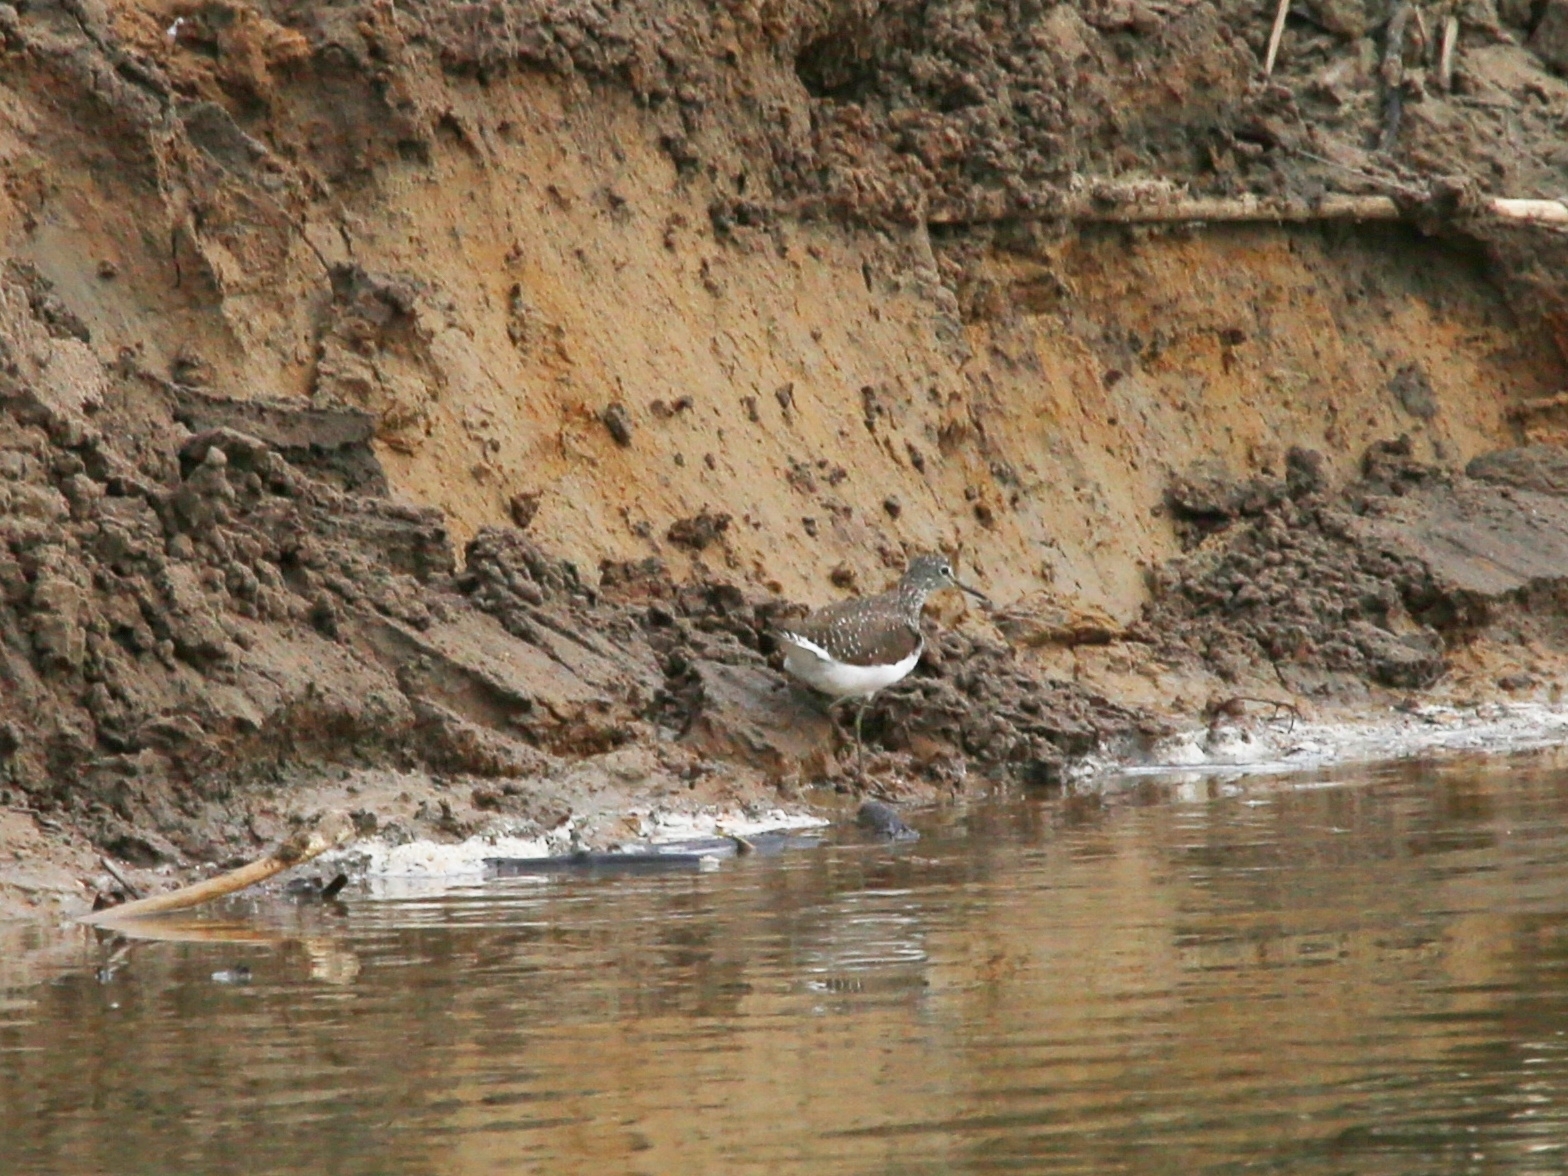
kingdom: Animalia
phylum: Chordata
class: Aves
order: Charadriiformes
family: Scolopacidae
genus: Tringa
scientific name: Tringa ochropus
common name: Green sandpiper
